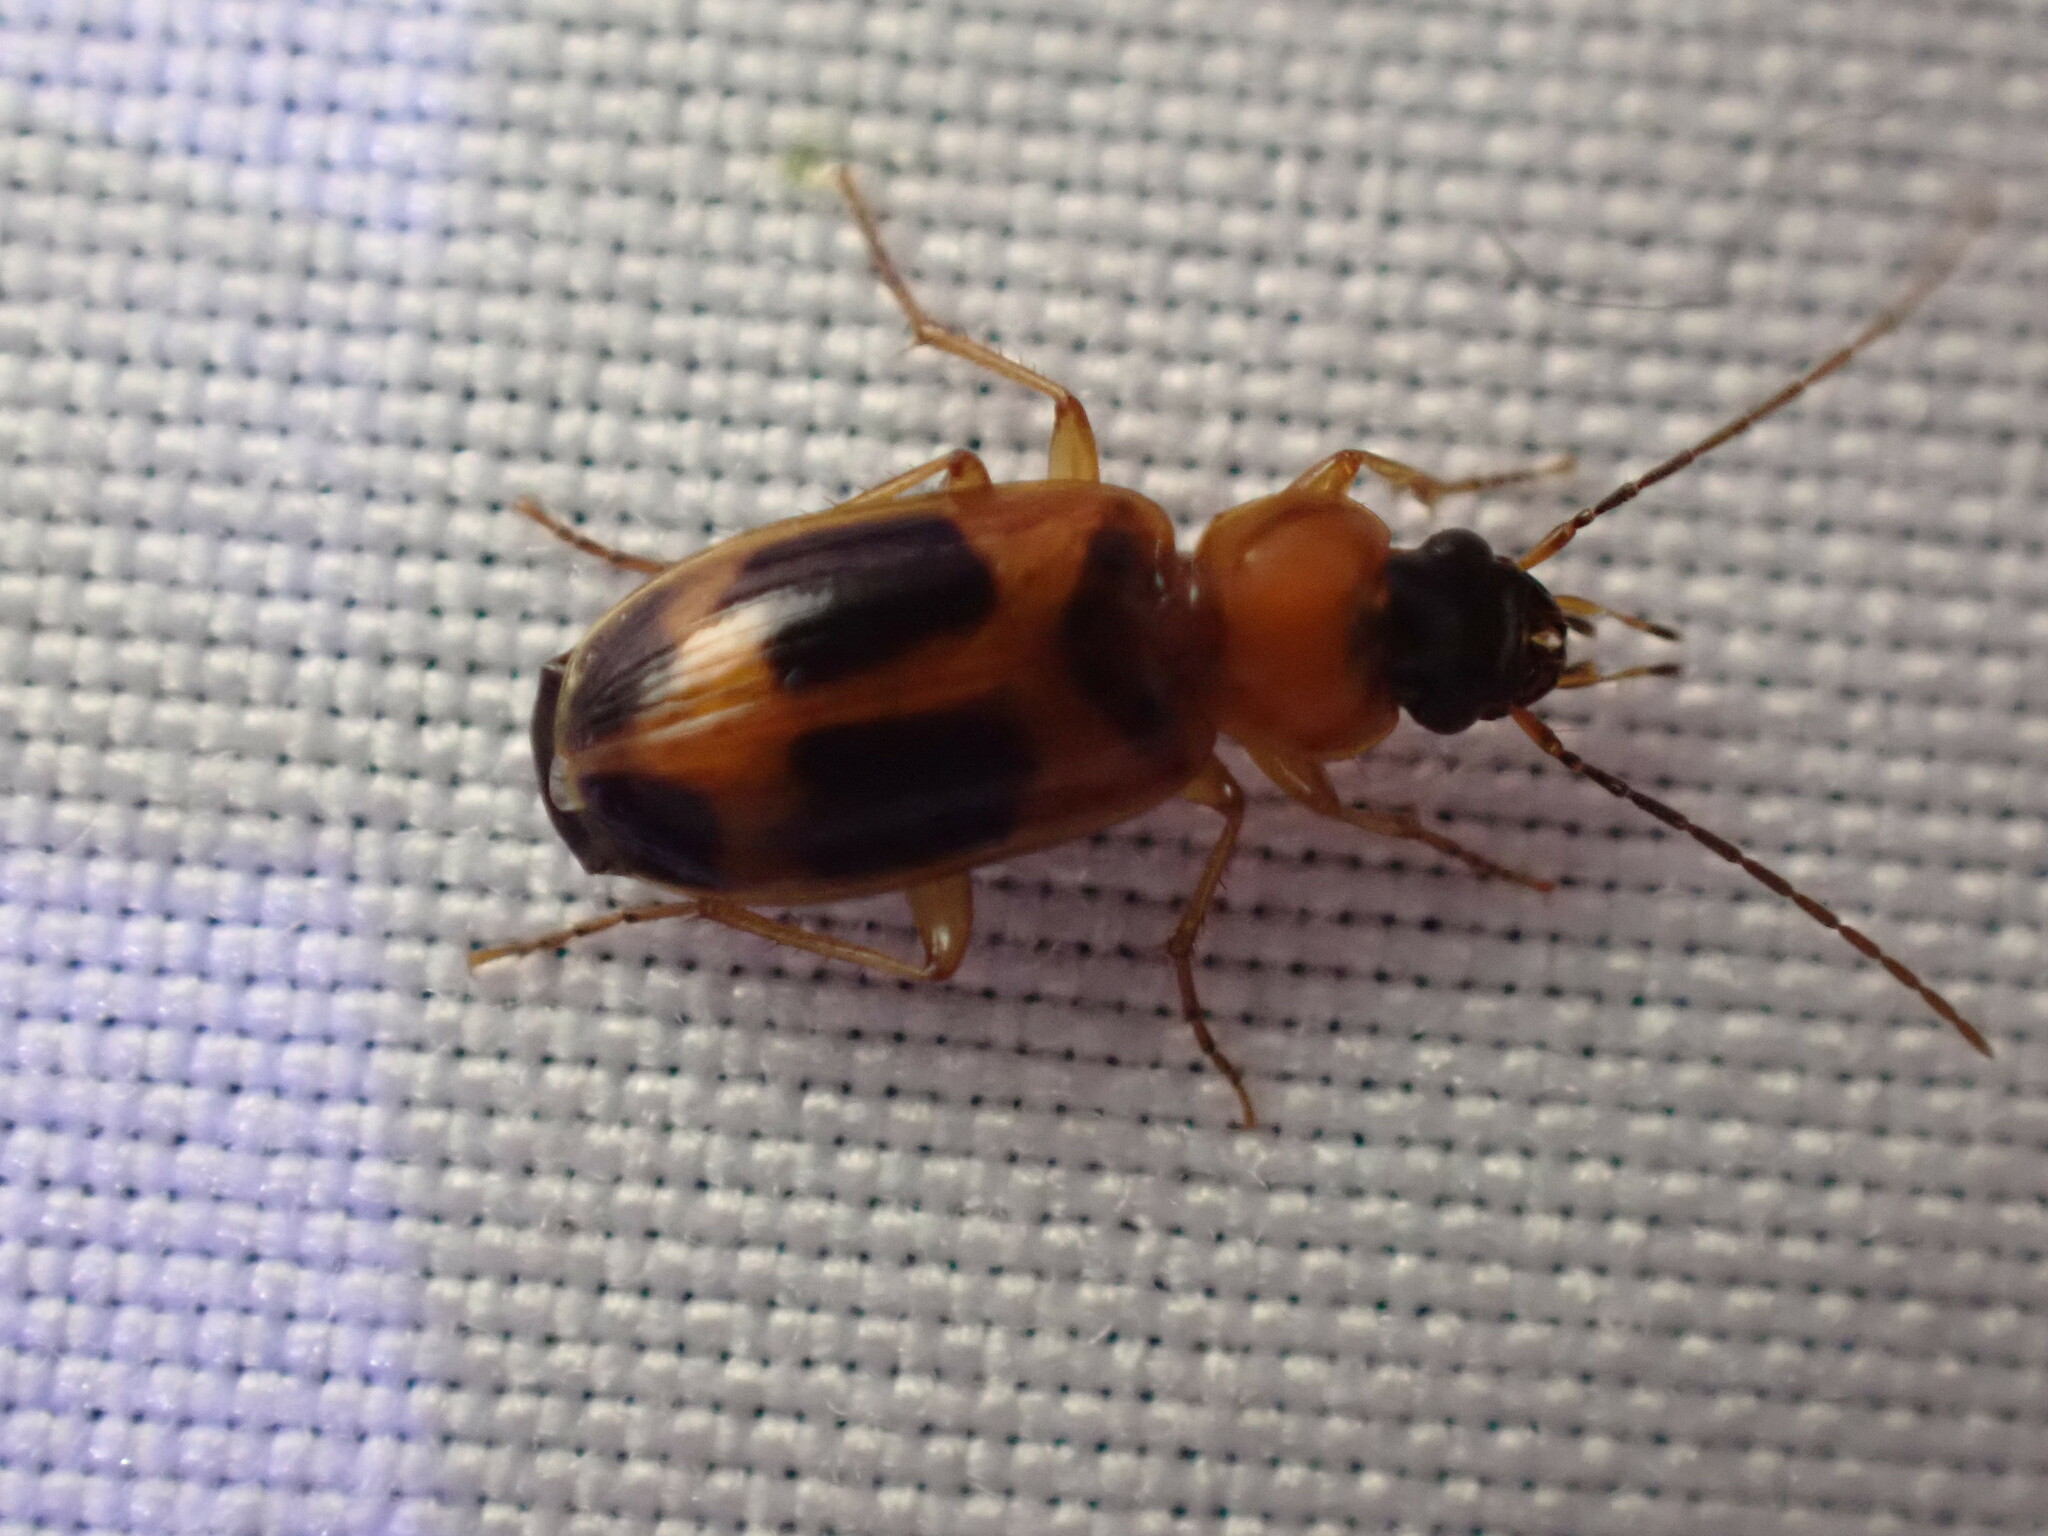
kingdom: Animalia
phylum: Arthropoda
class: Insecta
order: Coleoptera
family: Carabidae
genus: Badister
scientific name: Badister neopulchellus
